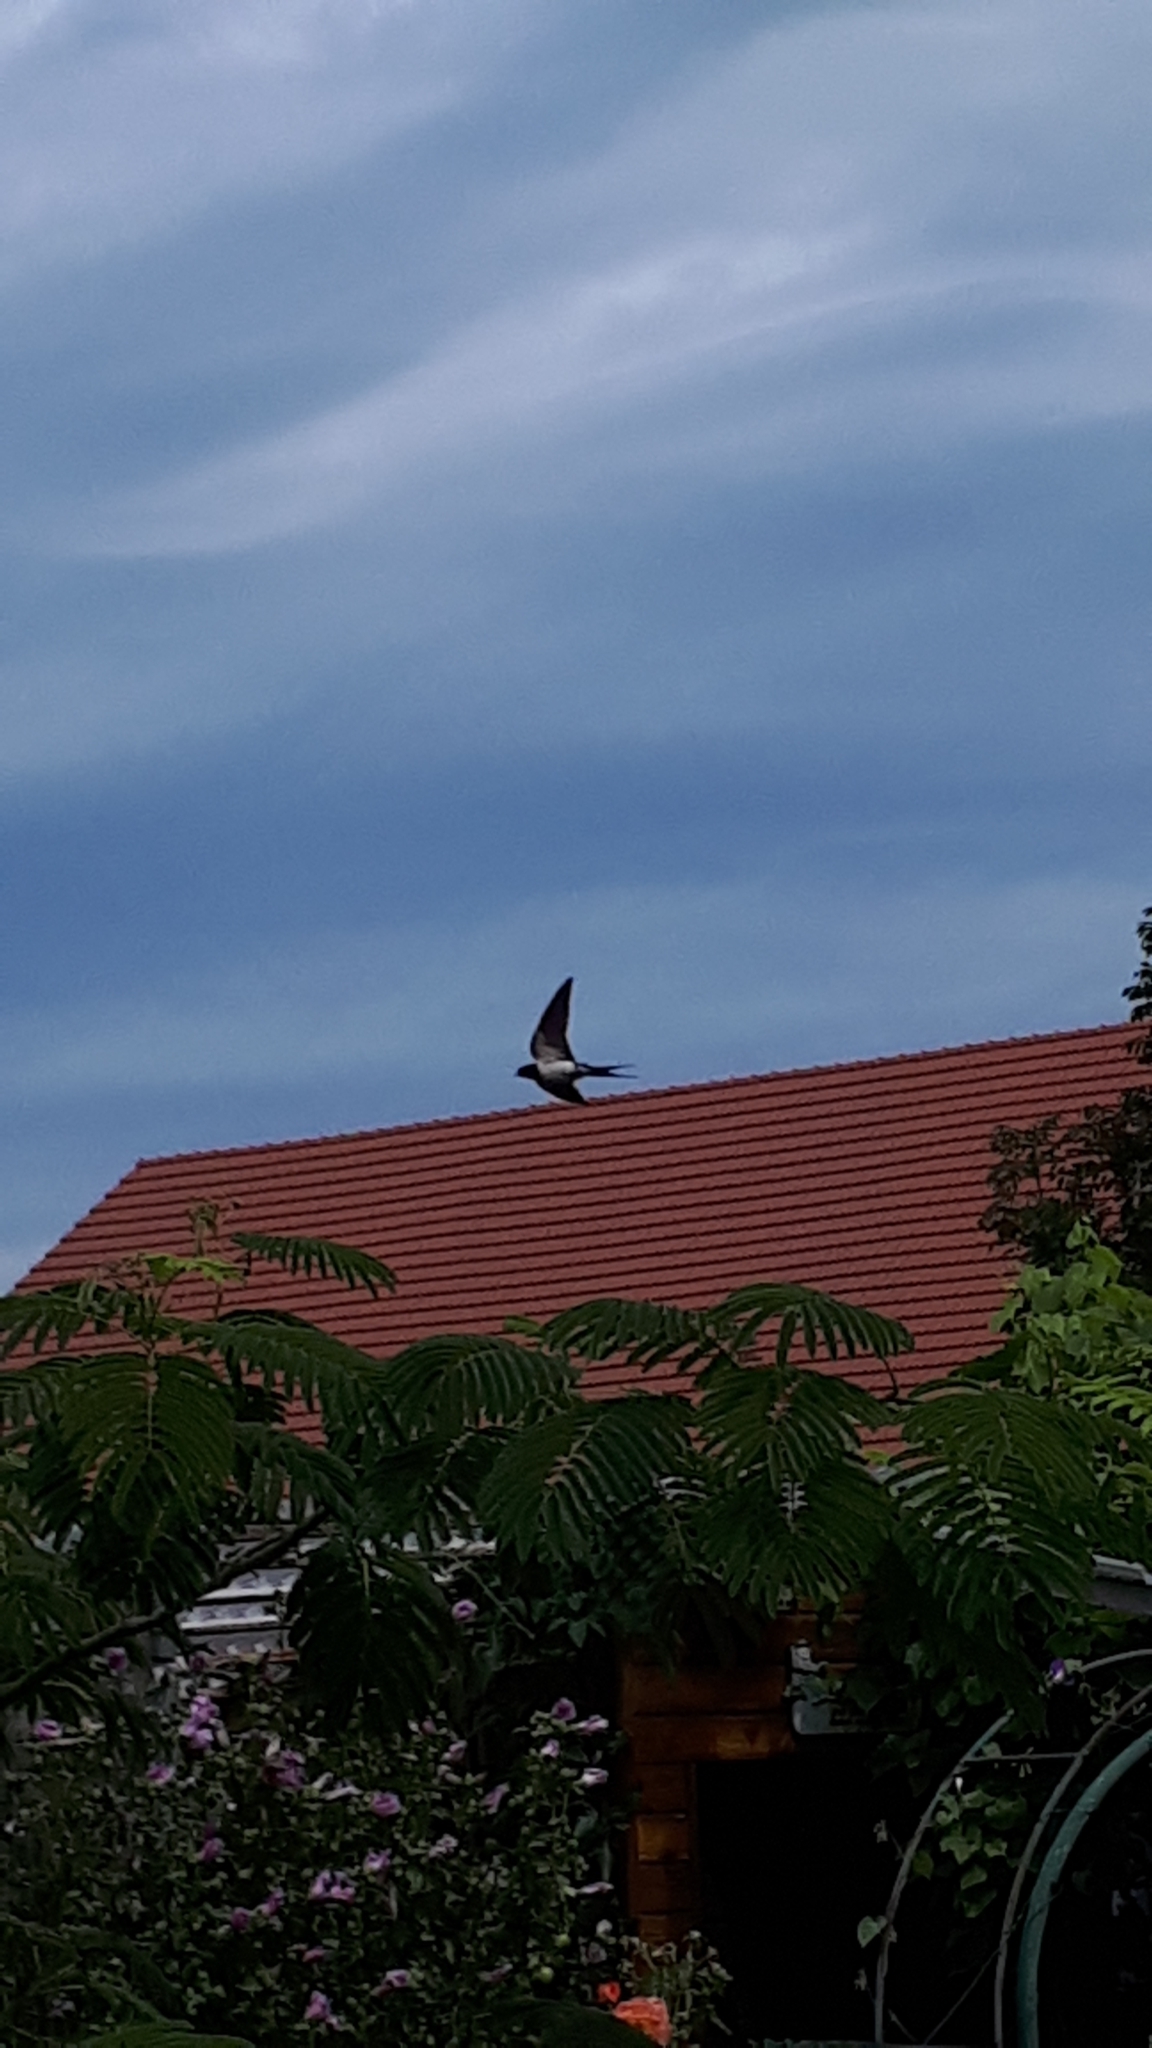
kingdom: Animalia
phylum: Chordata
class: Aves
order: Passeriformes
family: Hirundinidae
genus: Hirundo
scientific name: Hirundo rustica
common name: Barn swallow
